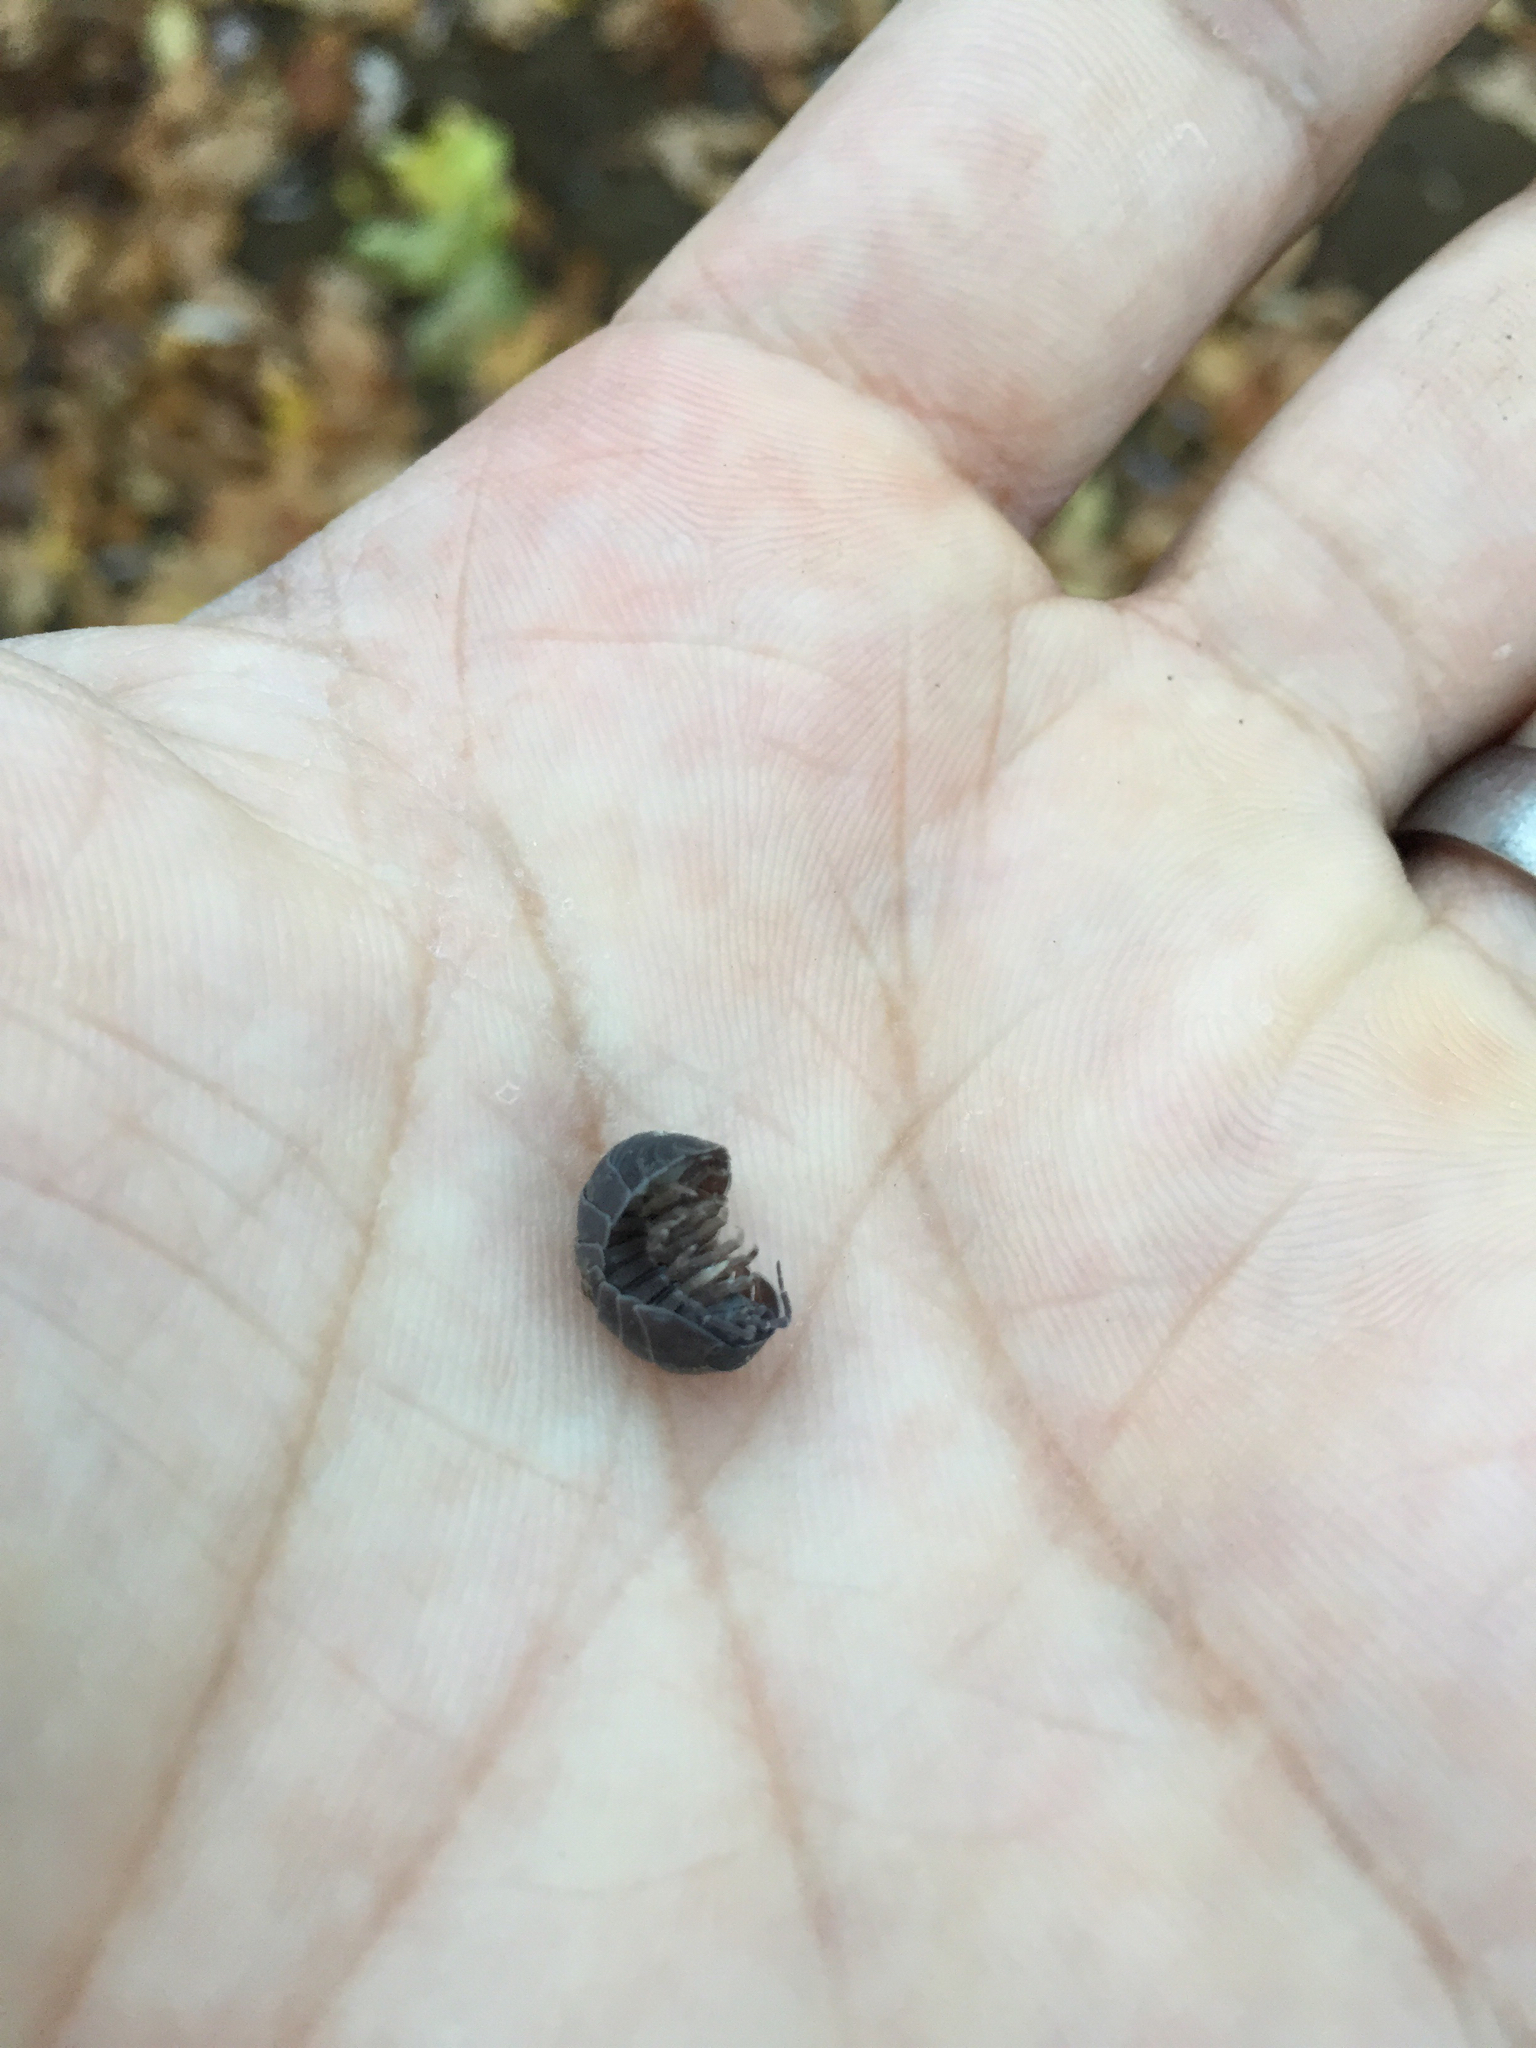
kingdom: Animalia
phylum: Arthropoda
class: Malacostraca
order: Isopoda
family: Armadillidiidae
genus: Armadillidium
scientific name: Armadillidium vulgare
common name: Common pill woodlouse
